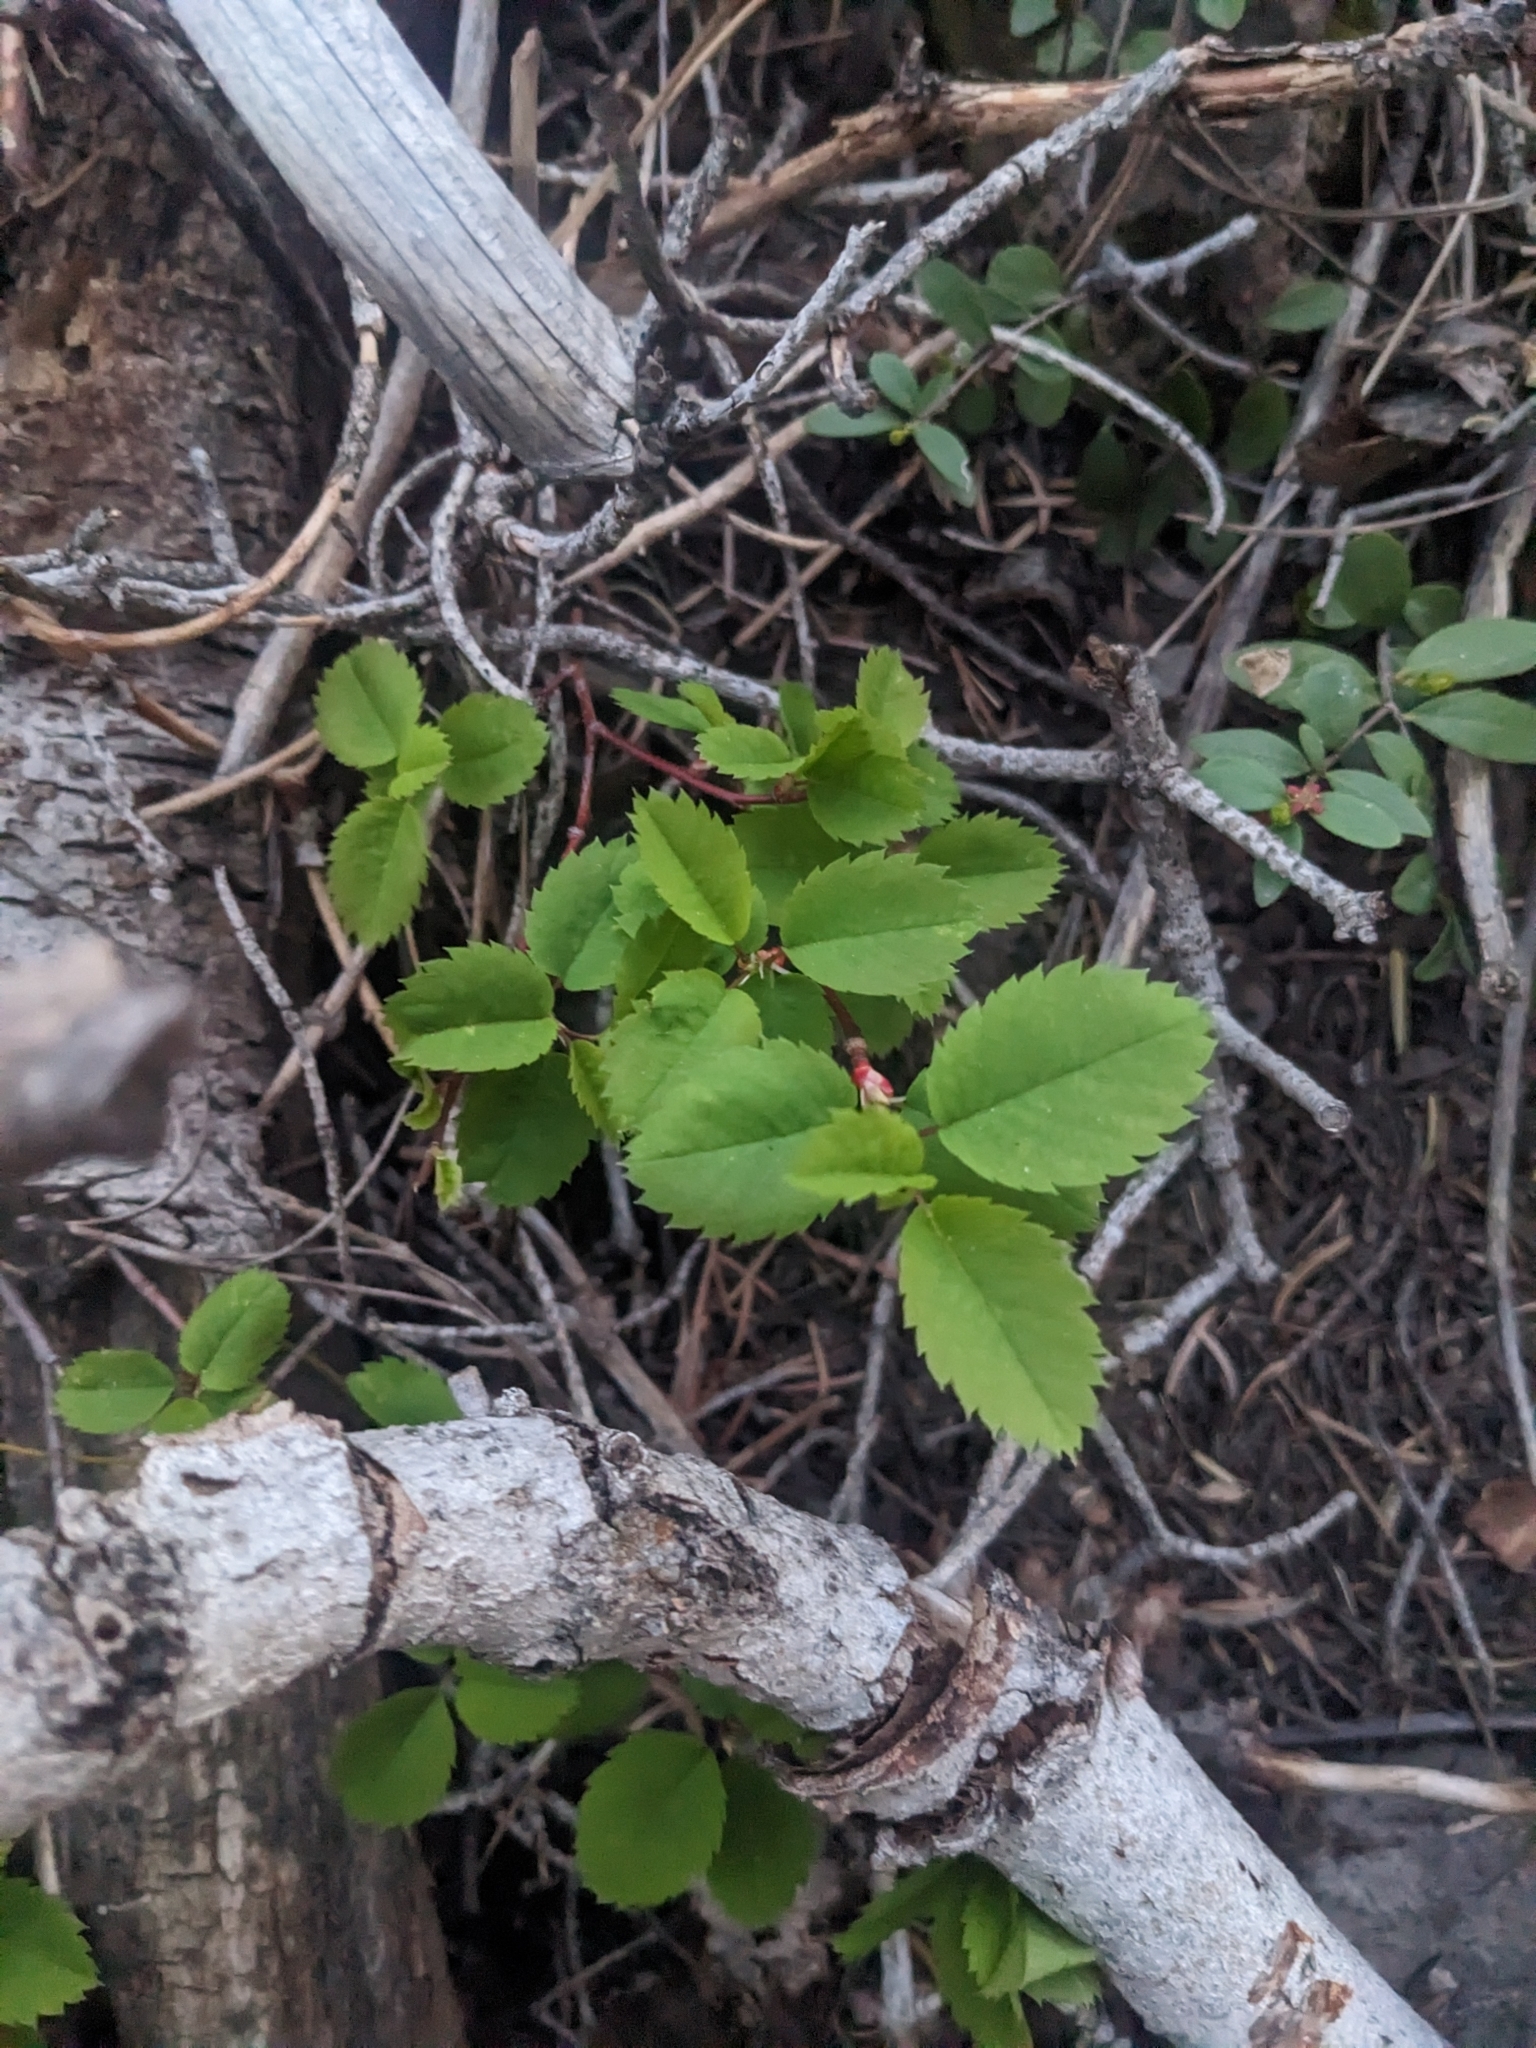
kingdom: Plantae
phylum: Tracheophyta
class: Magnoliopsida
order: Rosales
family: Rosaceae
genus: Rosa
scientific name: Rosa woodsii
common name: Woods's rose
